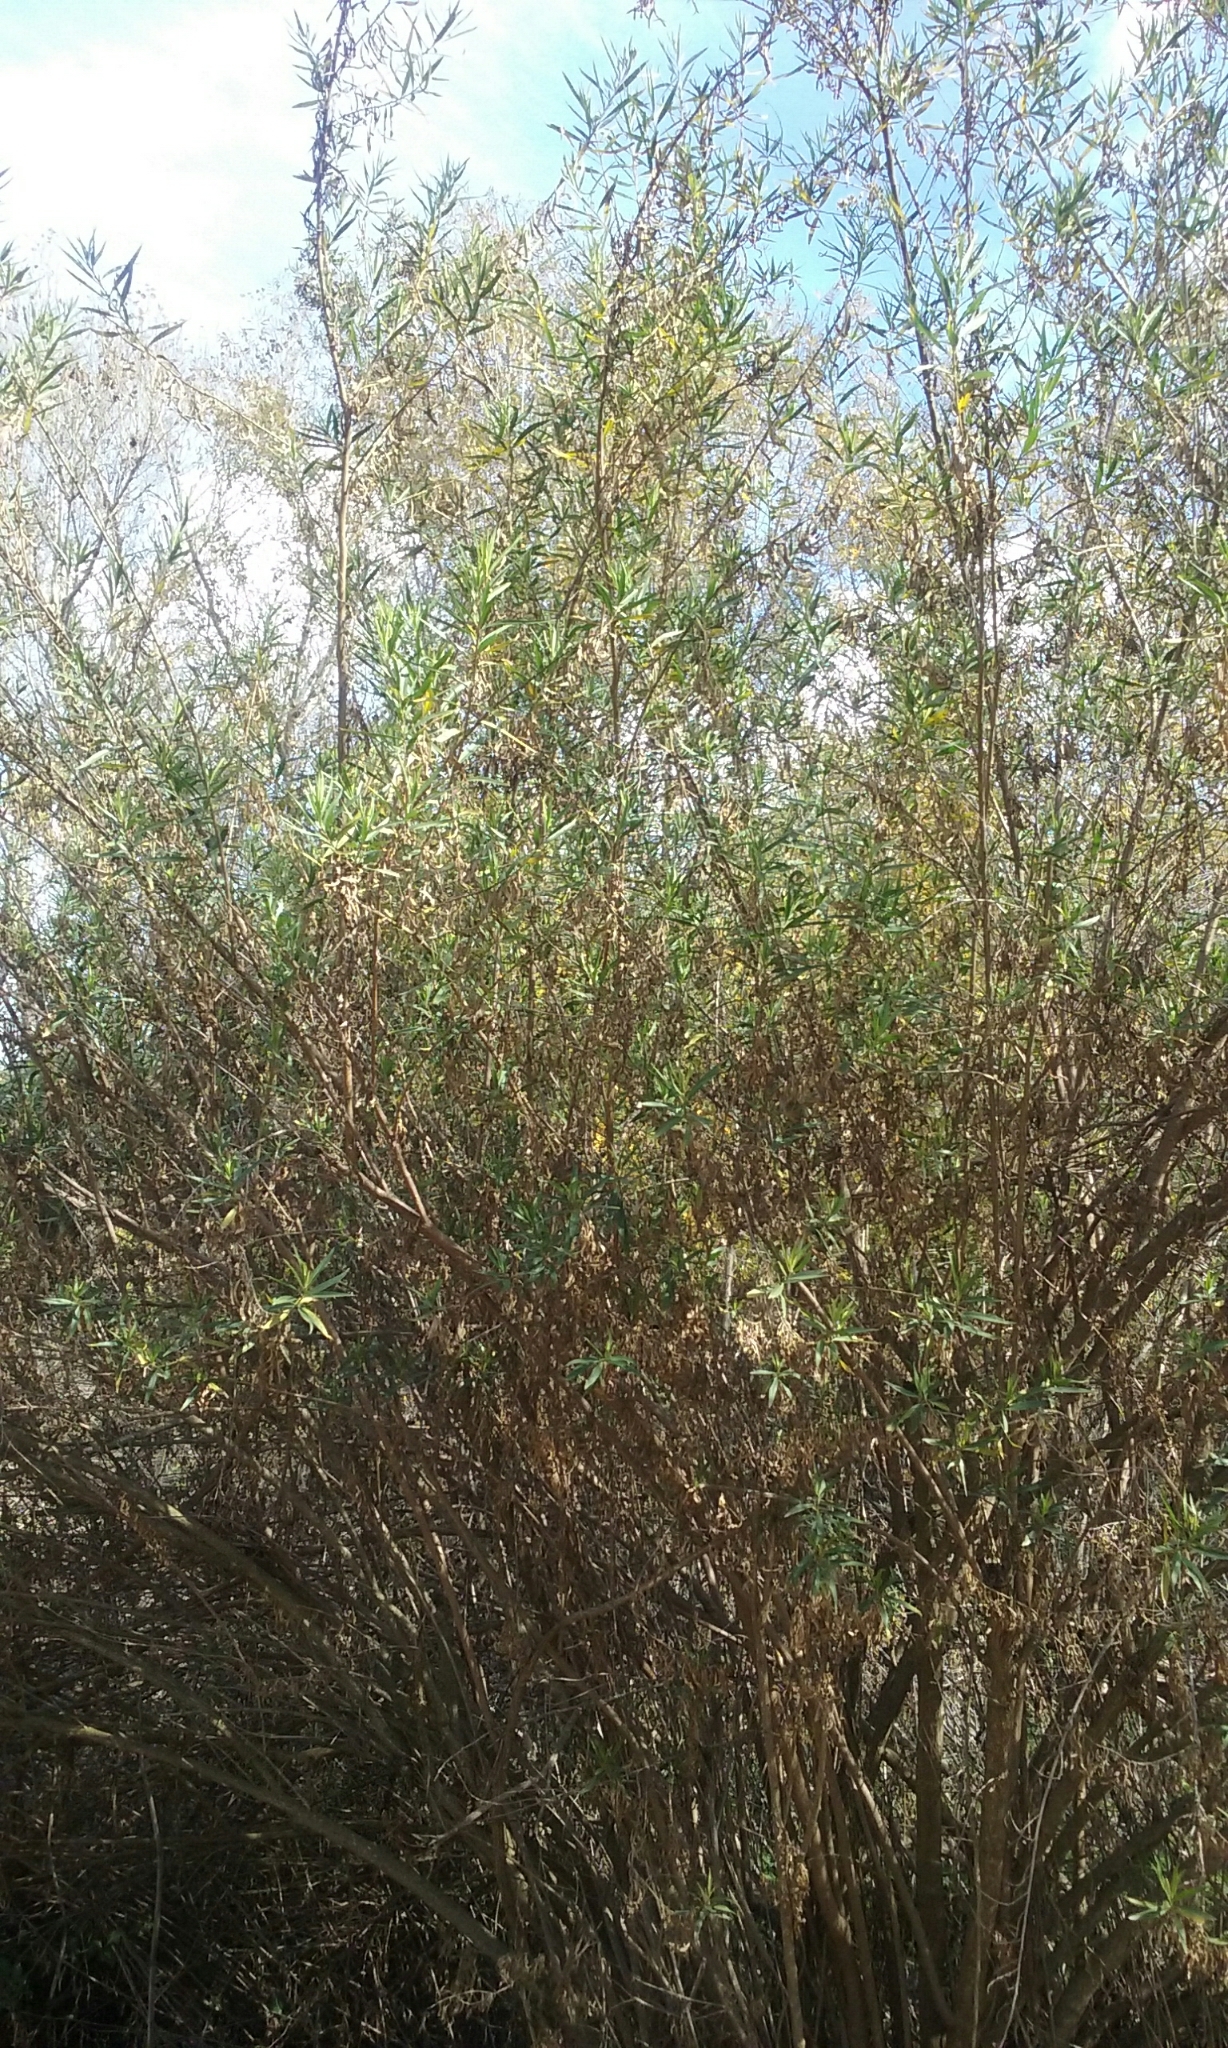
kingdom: Plantae
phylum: Tracheophyta
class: Magnoliopsida
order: Asterales
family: Asteraceae
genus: Baccharis
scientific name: Baccharis salicifolia
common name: Sticky baccharis
